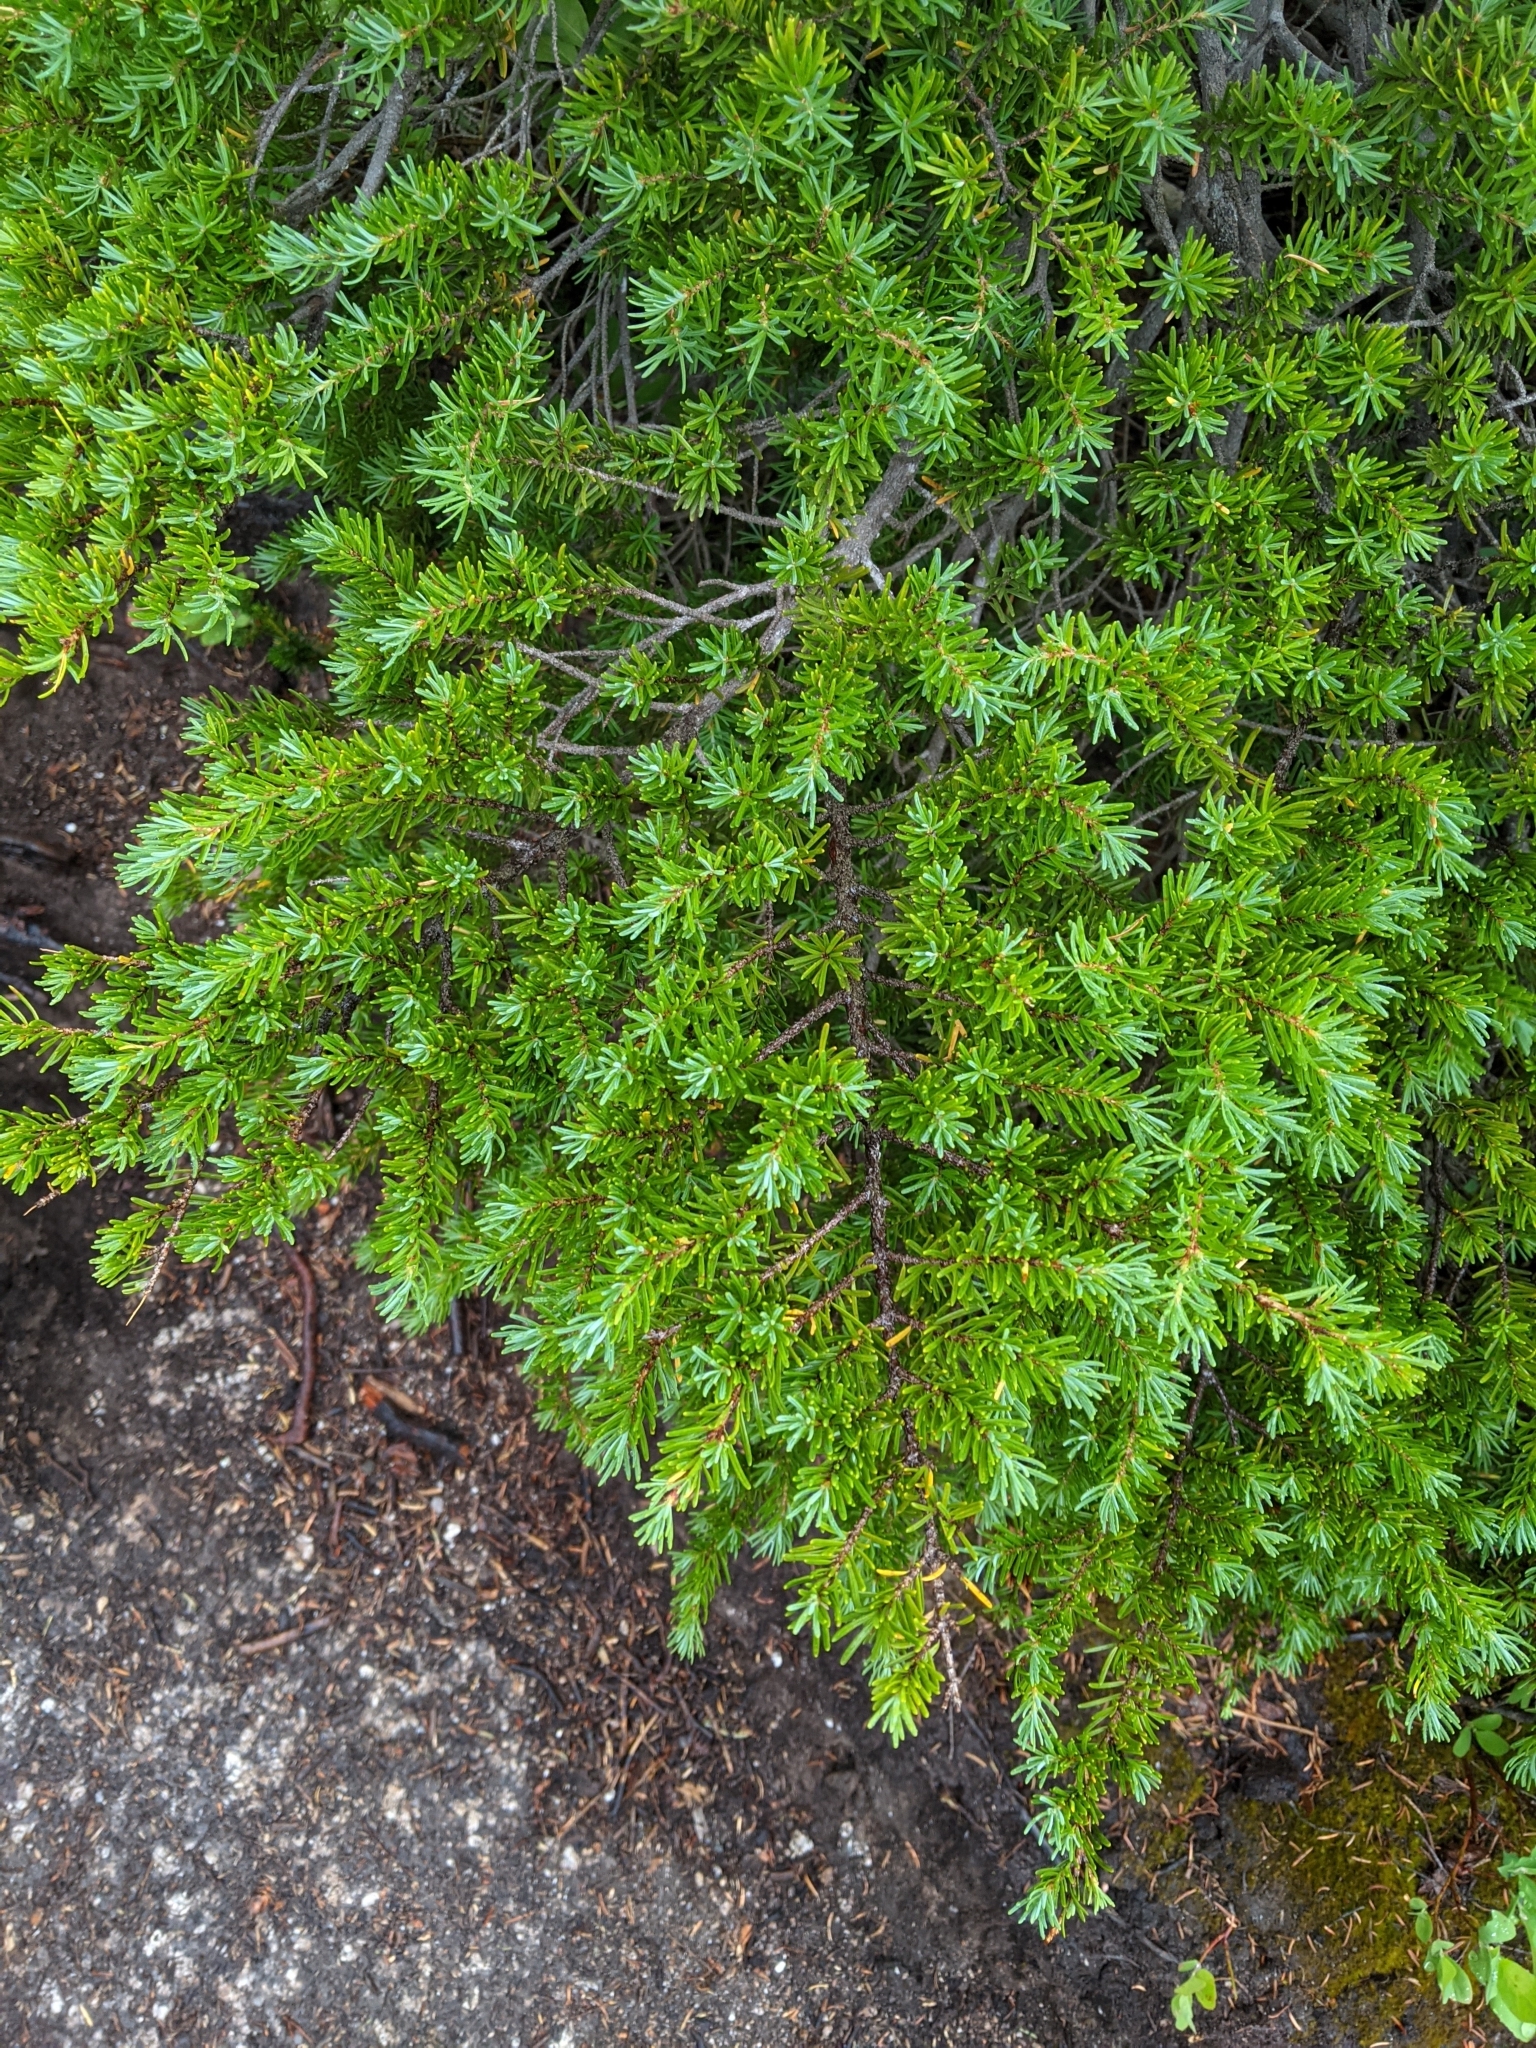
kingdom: Plantae
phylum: Tracheophyta
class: Pinopsida
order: Pinales
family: Pinaceae
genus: Tsuga
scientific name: Tsuga mertensiana
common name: Mountain hemlock
